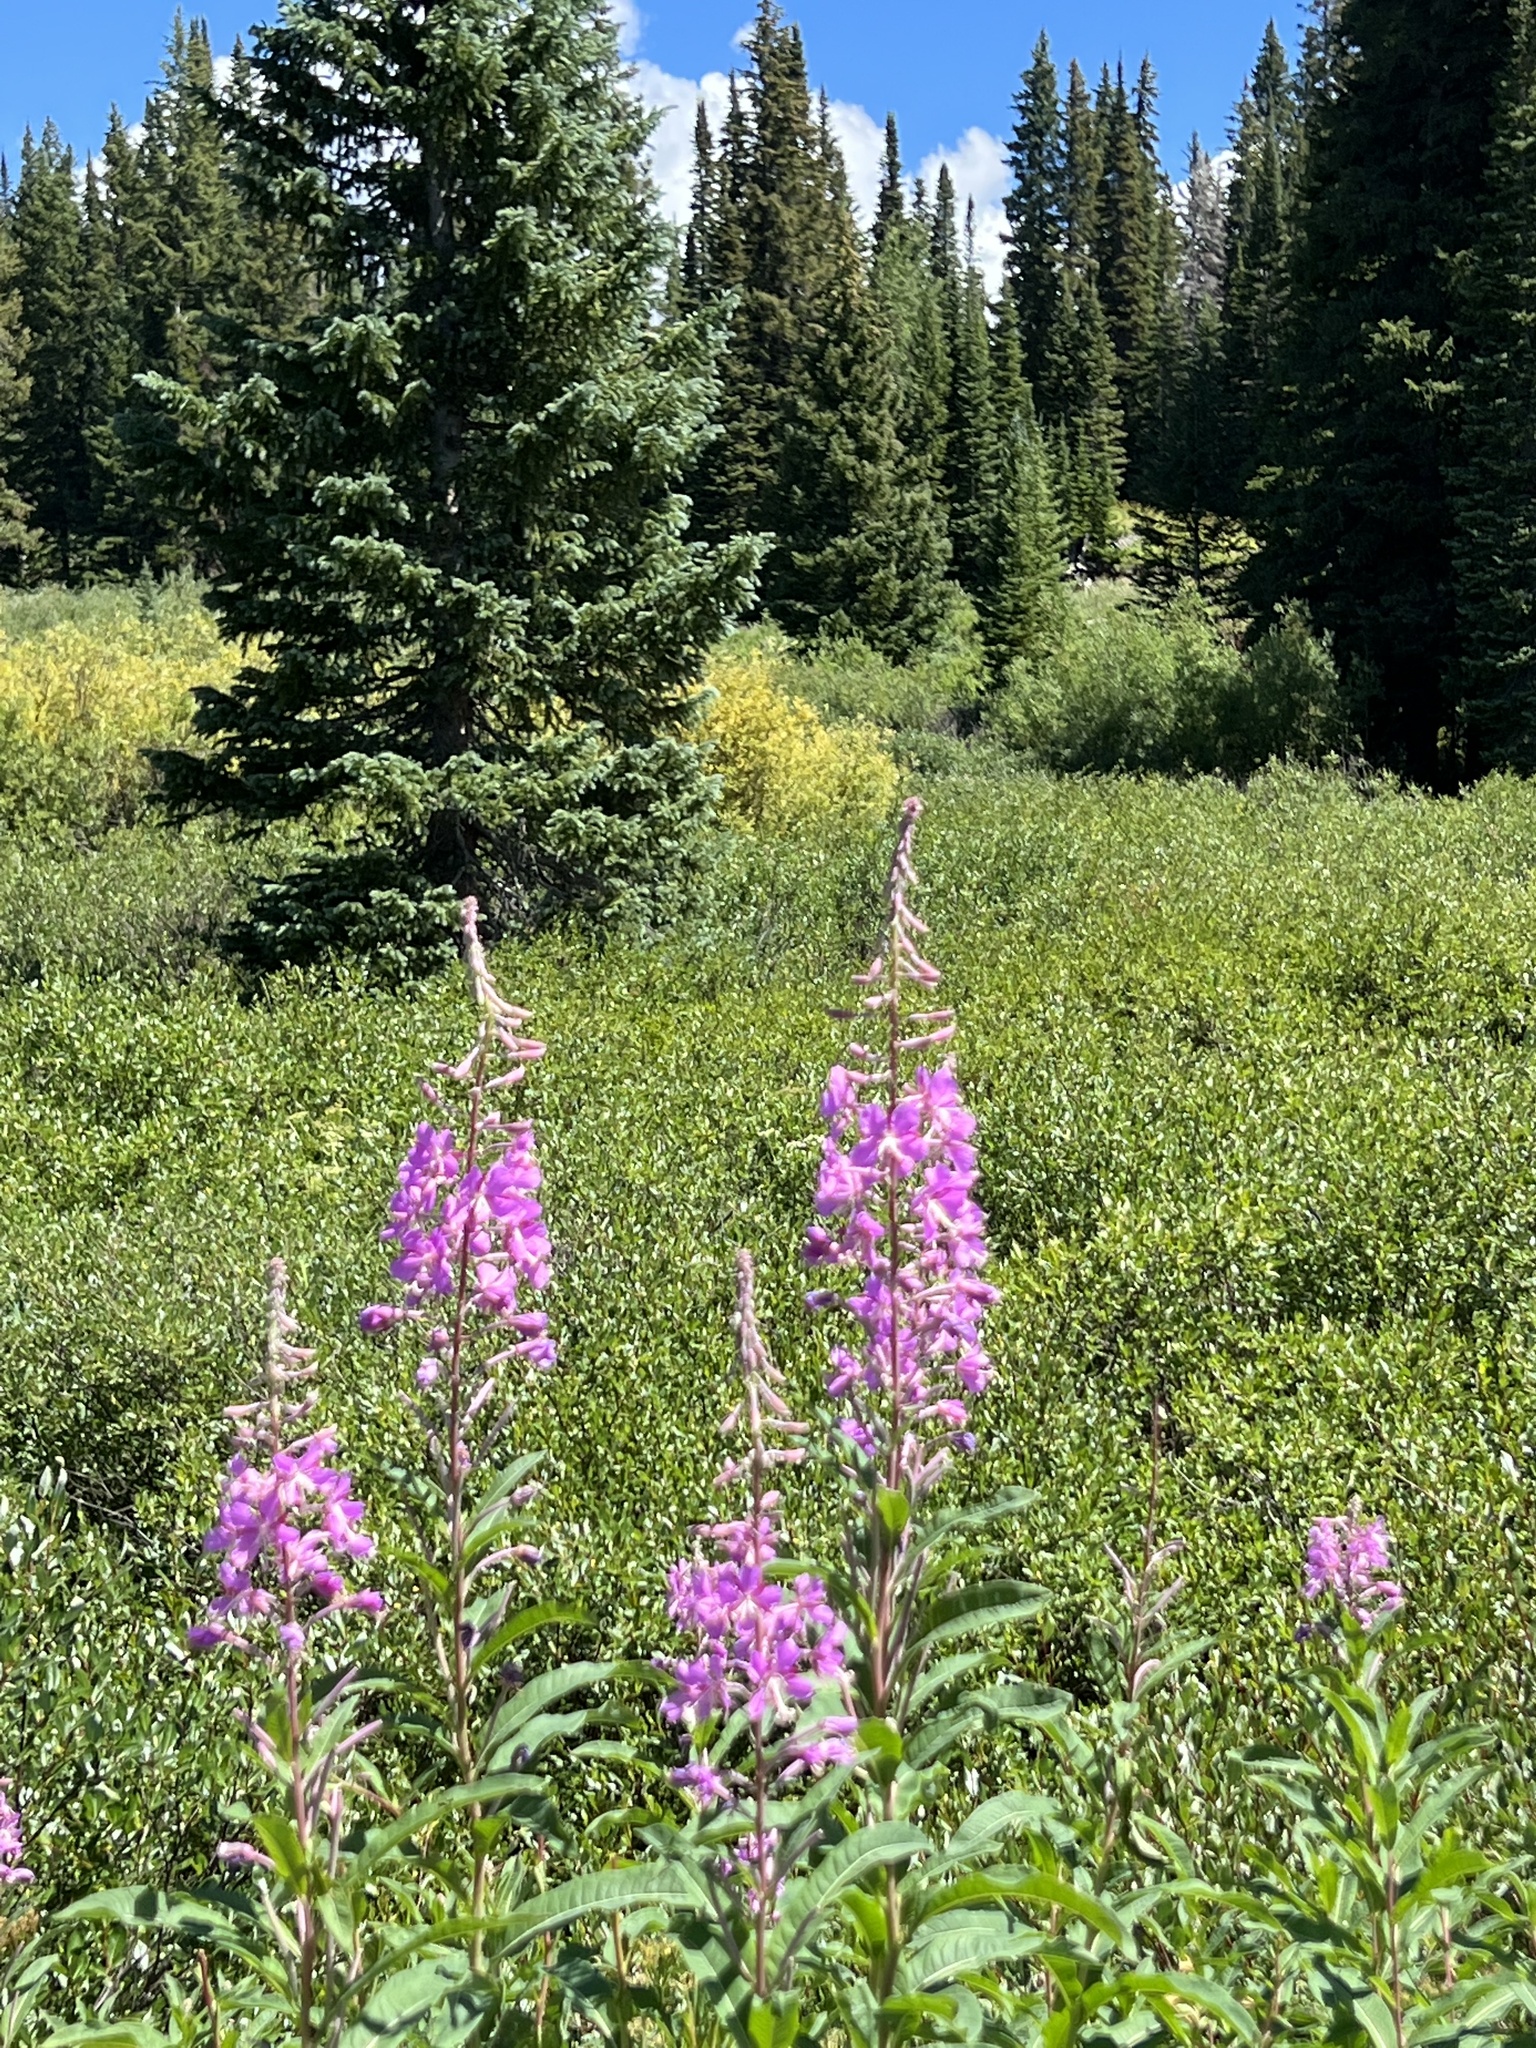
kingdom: Plantae
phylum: Tracheophyta
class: Magnoliopsida
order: Myrtales
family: Onagraceae
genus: Chamaenerion
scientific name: Chamaenerion angustifolium
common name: Fireweed
